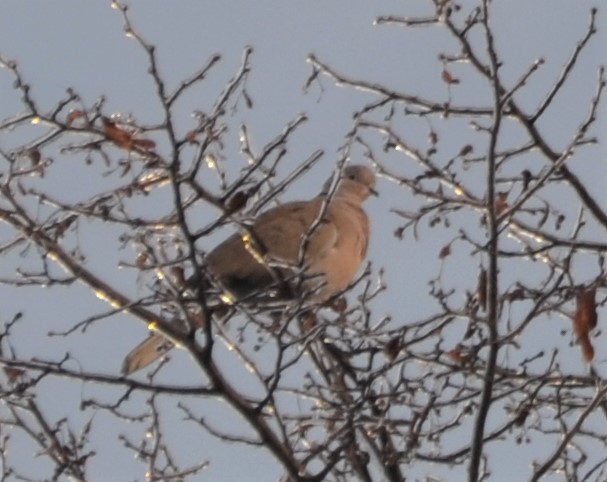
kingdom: Animalia
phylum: Chordata
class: Aves
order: Columbiformes
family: Columbidae
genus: Streptopelia
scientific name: Streptopelia decaocto
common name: Eurasian collared dove
